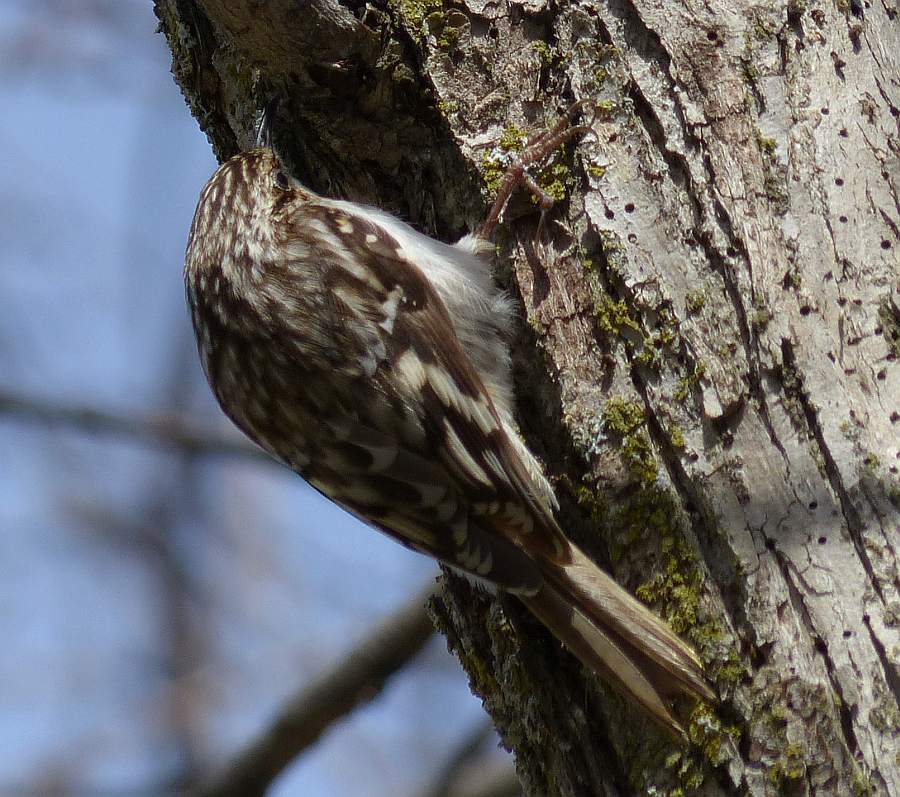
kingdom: Animalia
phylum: Chordata
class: Aves
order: Passeriformes
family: Certhiidae
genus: Certhia
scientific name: Certhia americana
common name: Brown creeper
